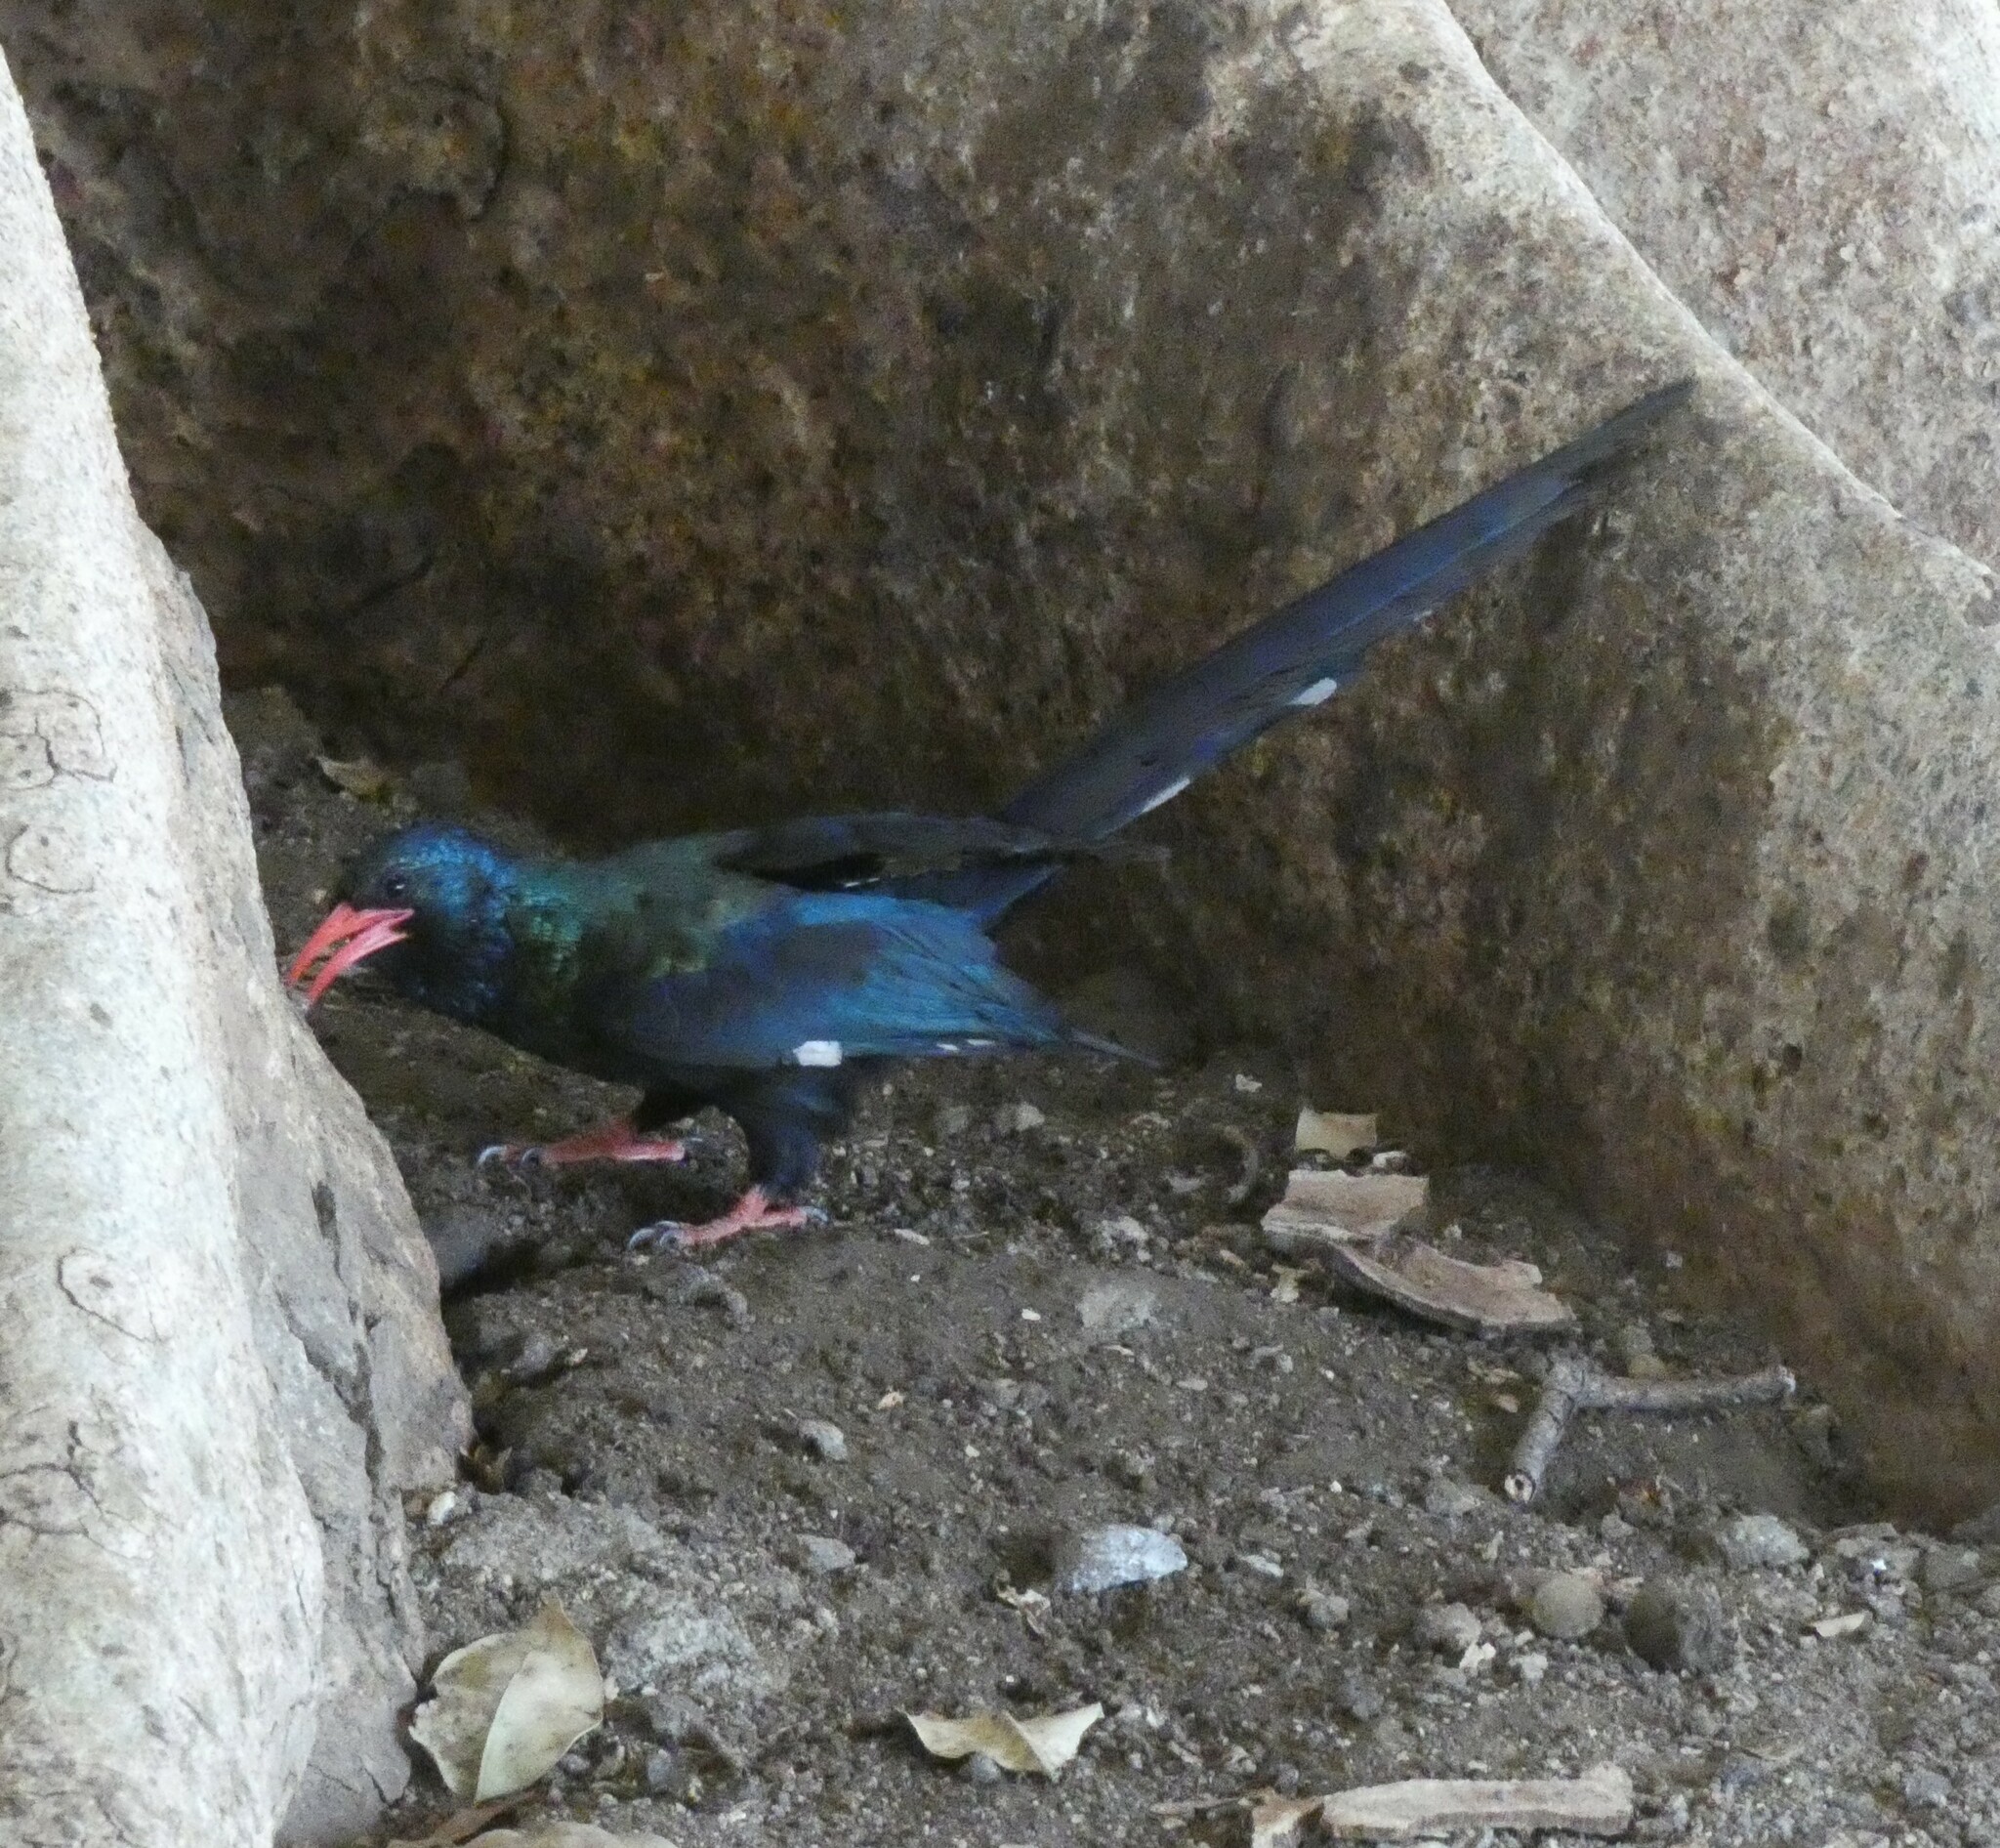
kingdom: Animalia
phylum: Chordata
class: Aves
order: Bucerotiformes
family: Phoeniculidae
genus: Phoeniculus
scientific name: Phoeniculus purpureus
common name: Green woodhoopoe
